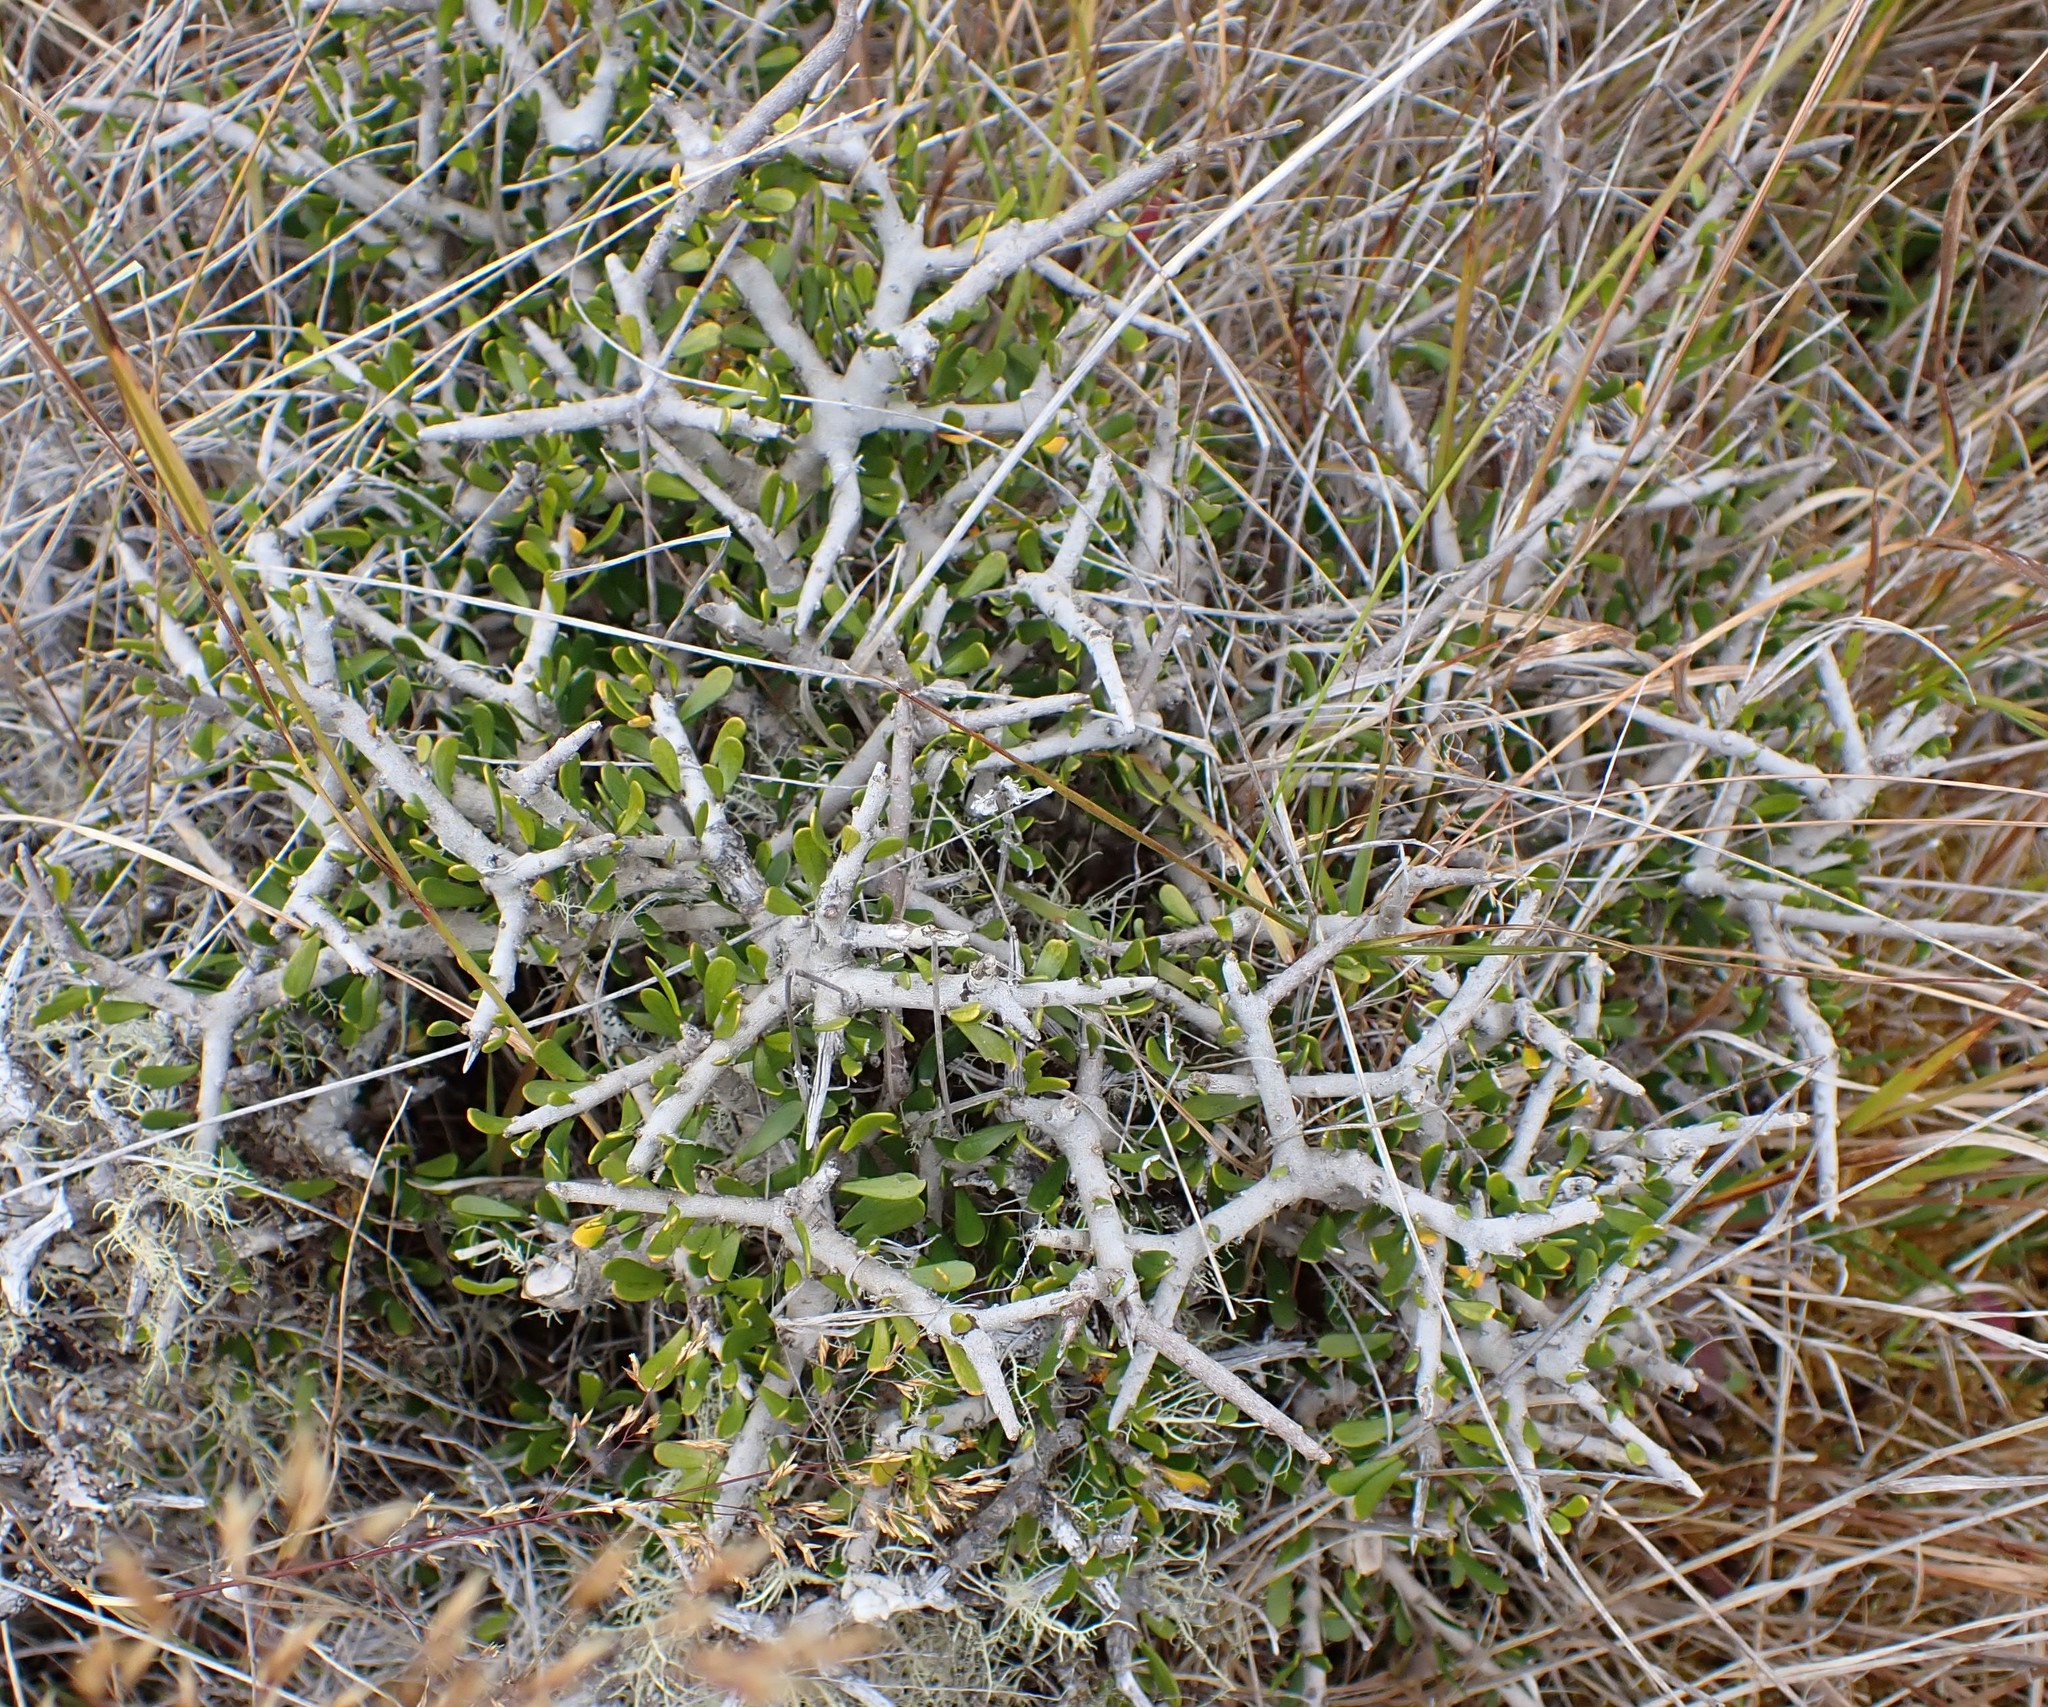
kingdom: Plantae
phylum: Tracheophyta
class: Magnoliopsida
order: Malpighiales
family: Violaceae
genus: Melicytus
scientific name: Melicytus alpinus
